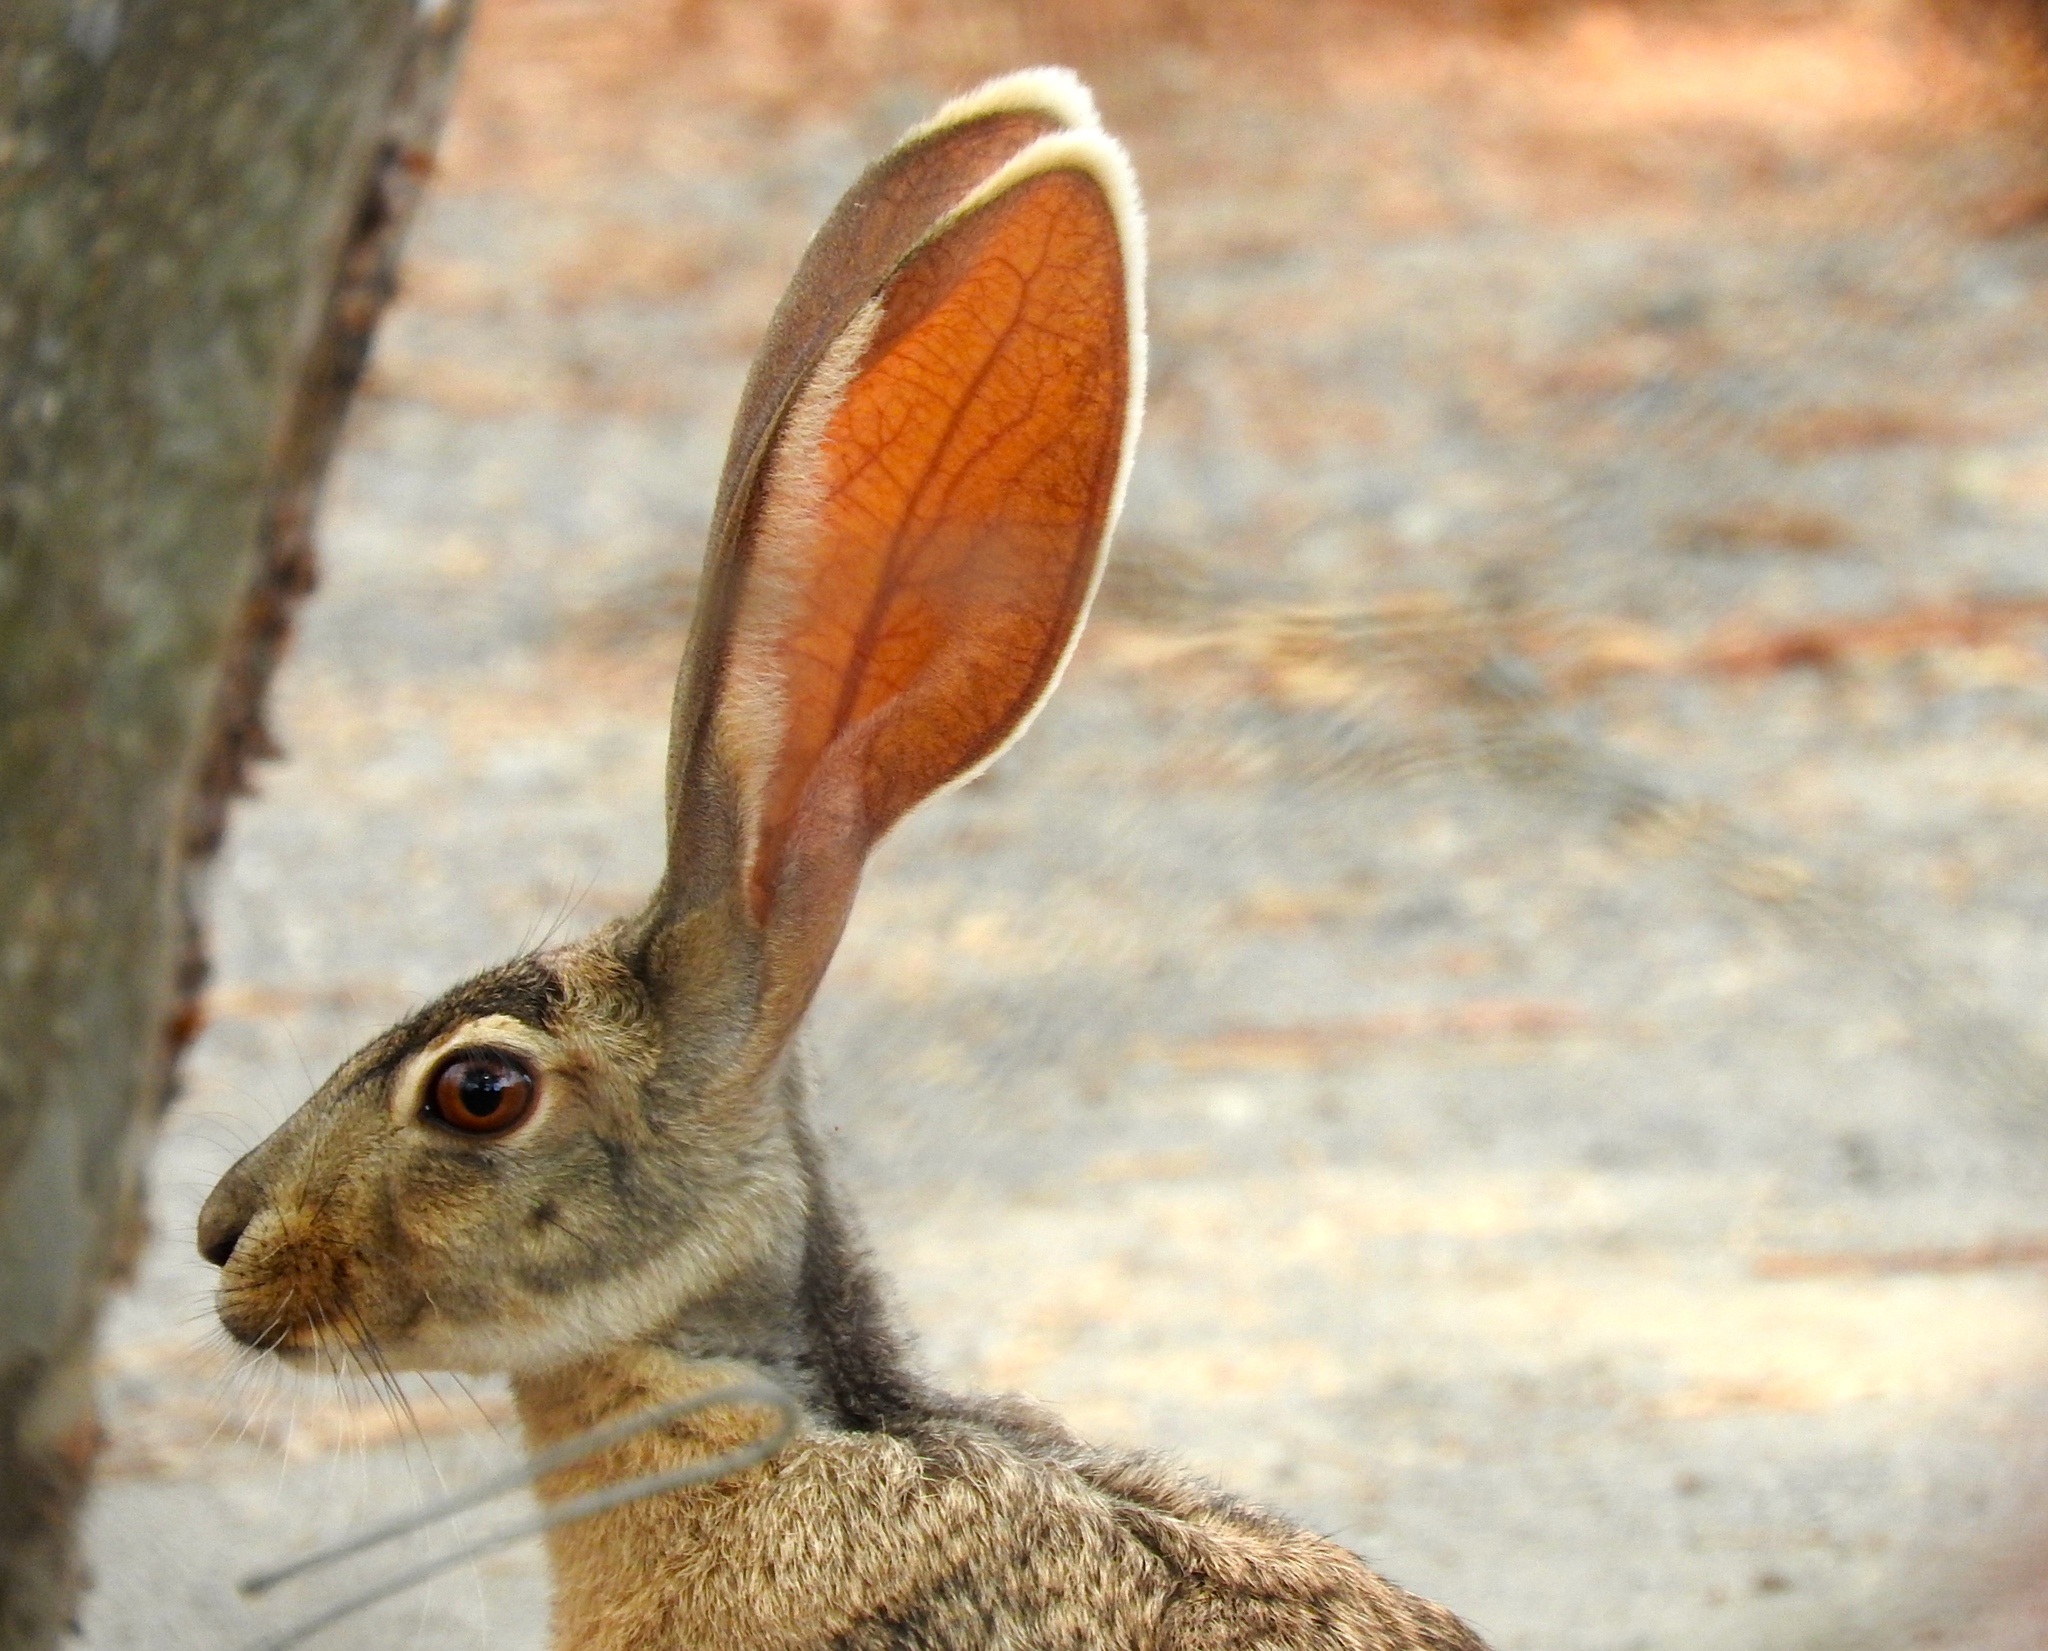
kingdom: Animalia
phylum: Chordata
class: Mammalia
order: Lagomorpha
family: Leporidae
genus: Lepus
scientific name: Lepus alleni
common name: Antelope jackrabbit
